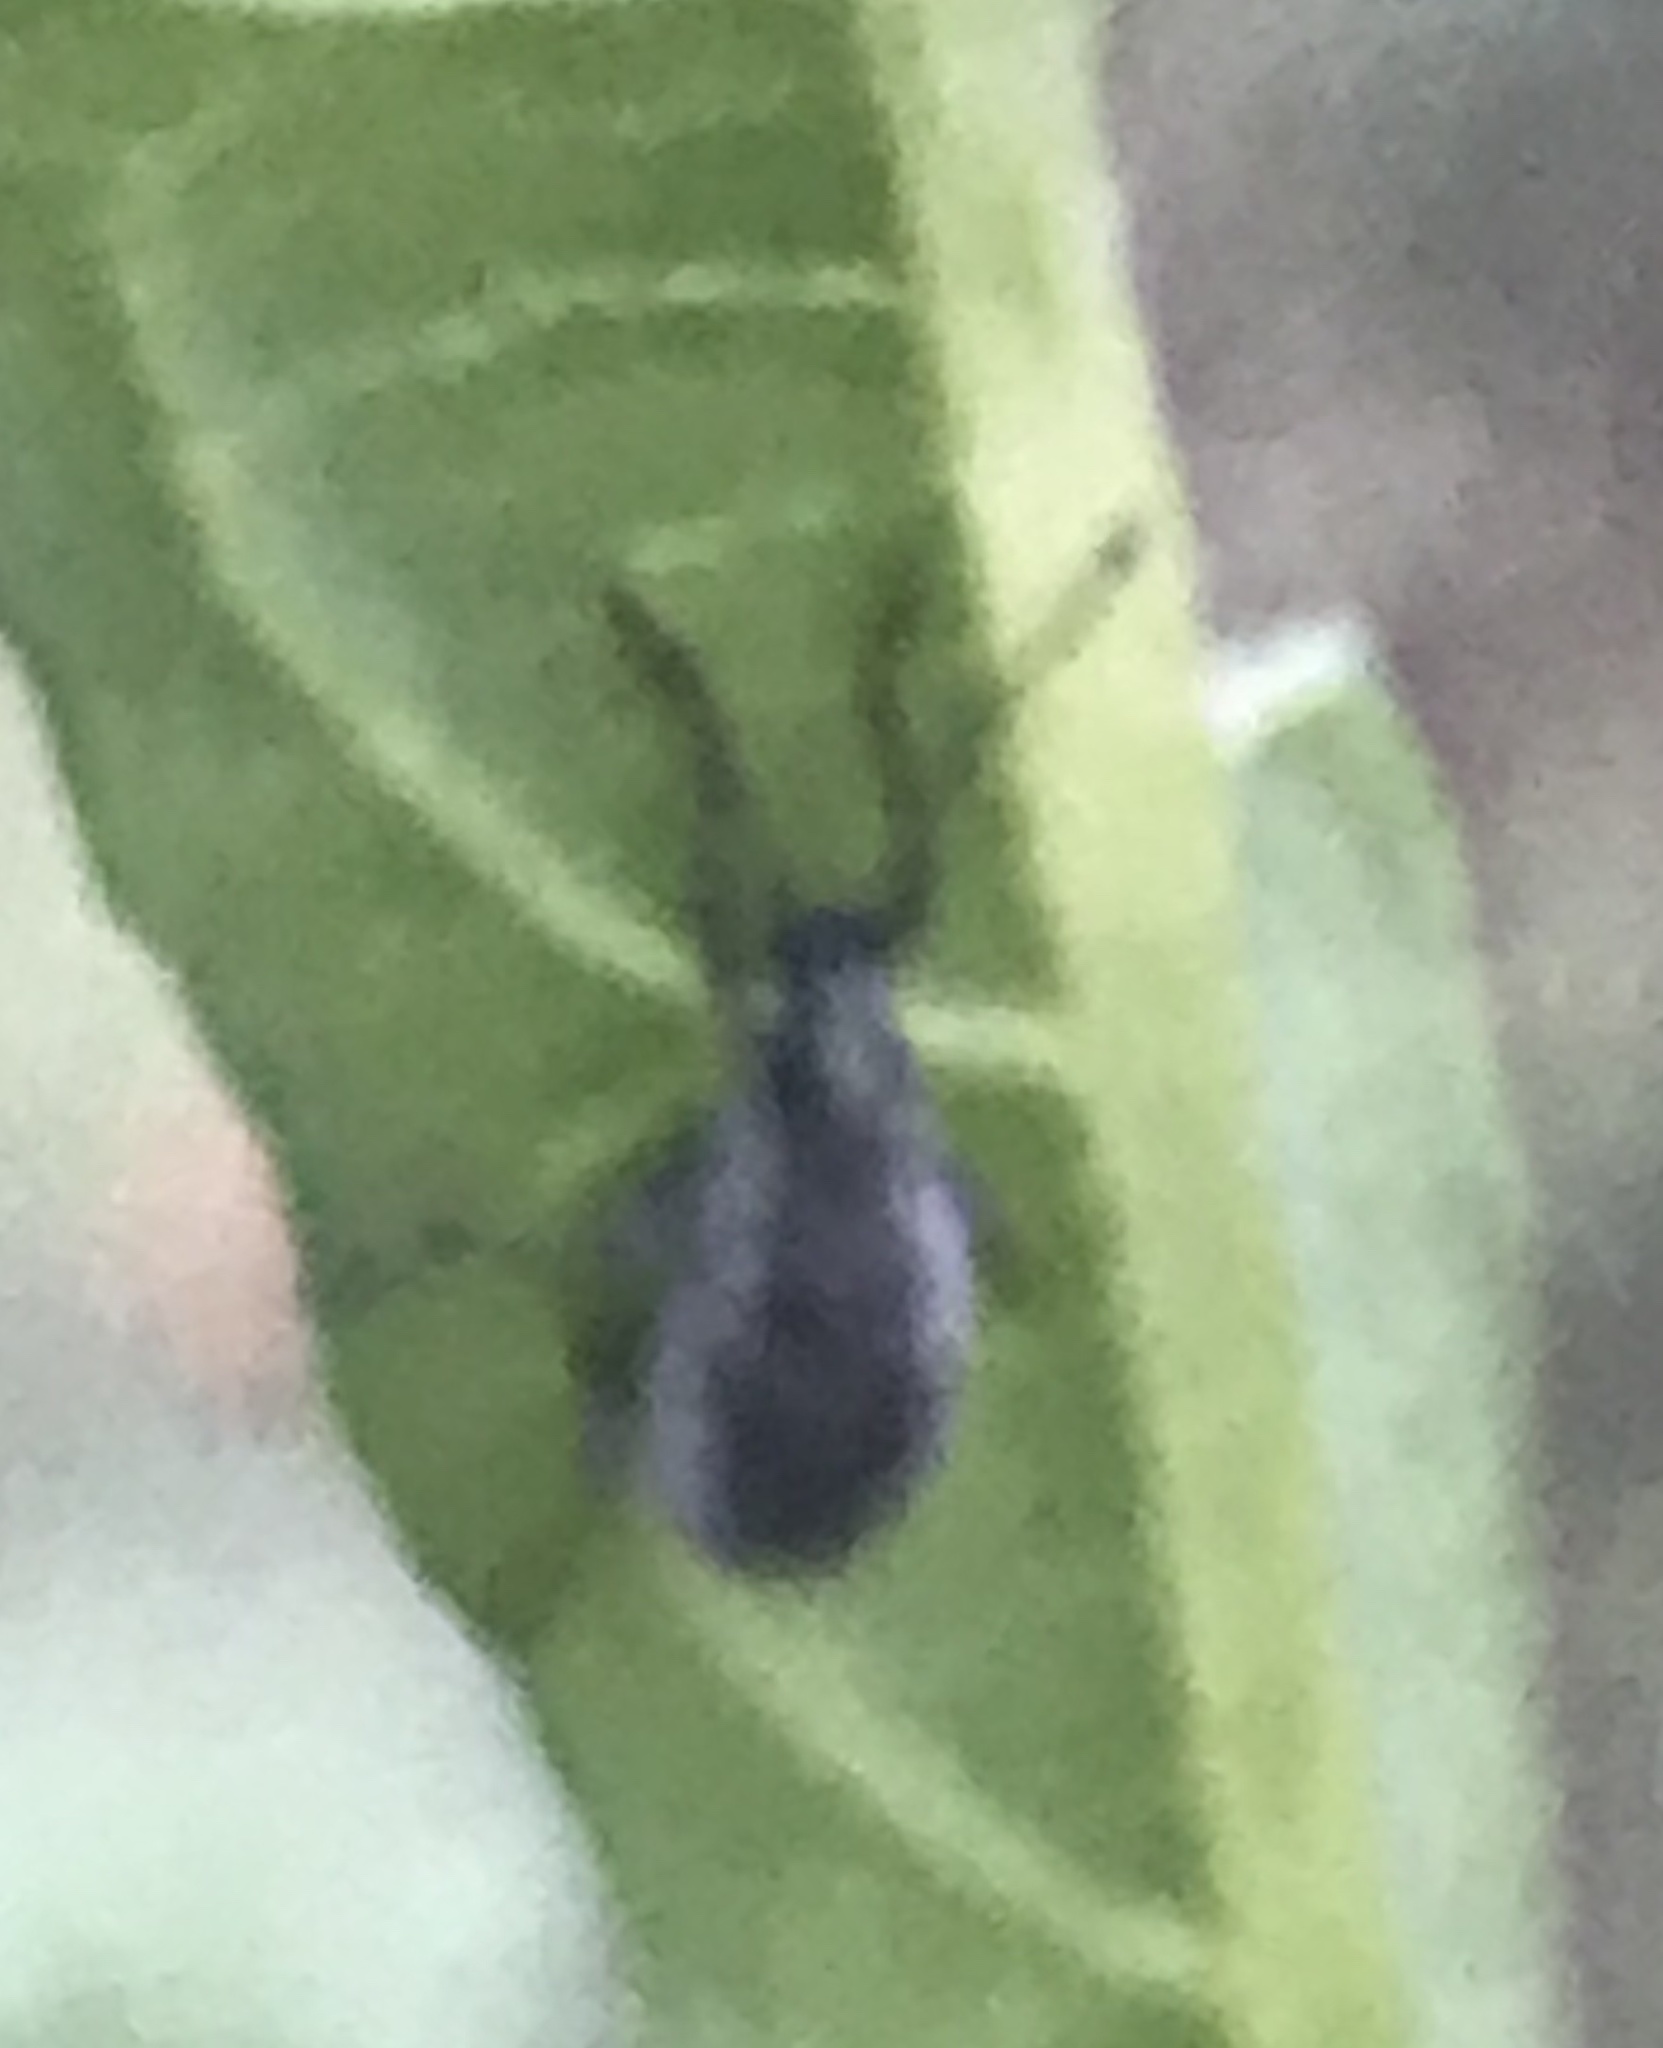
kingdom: Animalia
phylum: Arthropoda
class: Insecta
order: Coleoptera
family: Curculionidae
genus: Cyrtepistomus
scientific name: Cyrtepistomus castaneus
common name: Weevil
